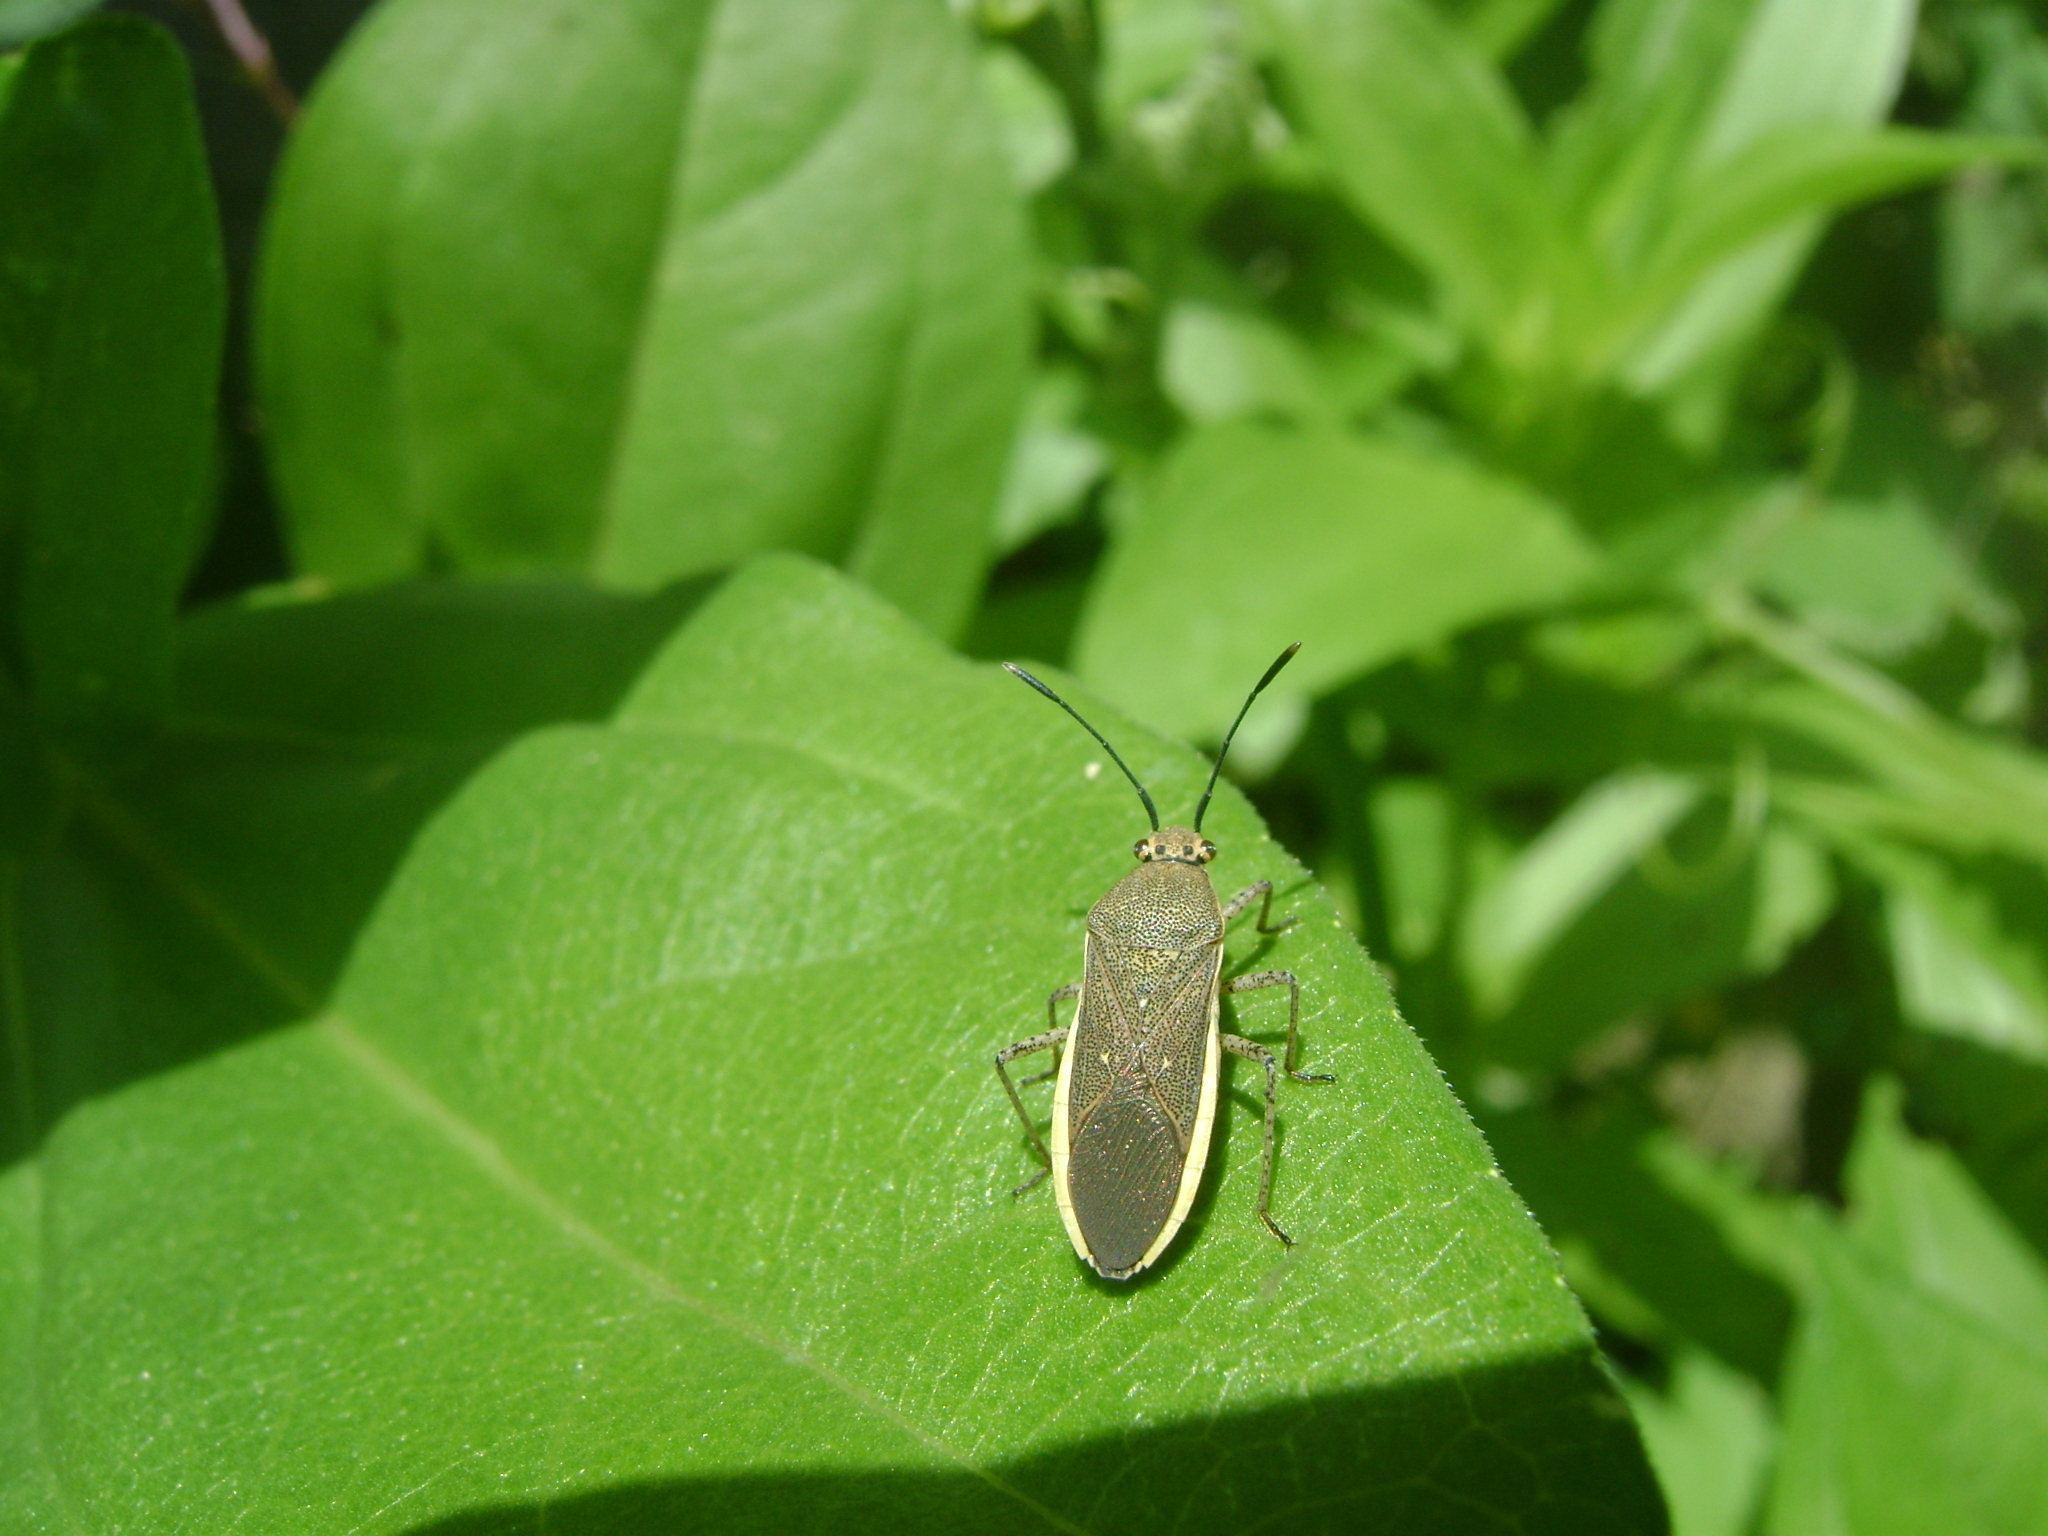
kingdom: Animalia
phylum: Arthropoda
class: Insecta
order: Hemiptera
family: Coreidae
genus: Catorhintha
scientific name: Catorhintha selector
